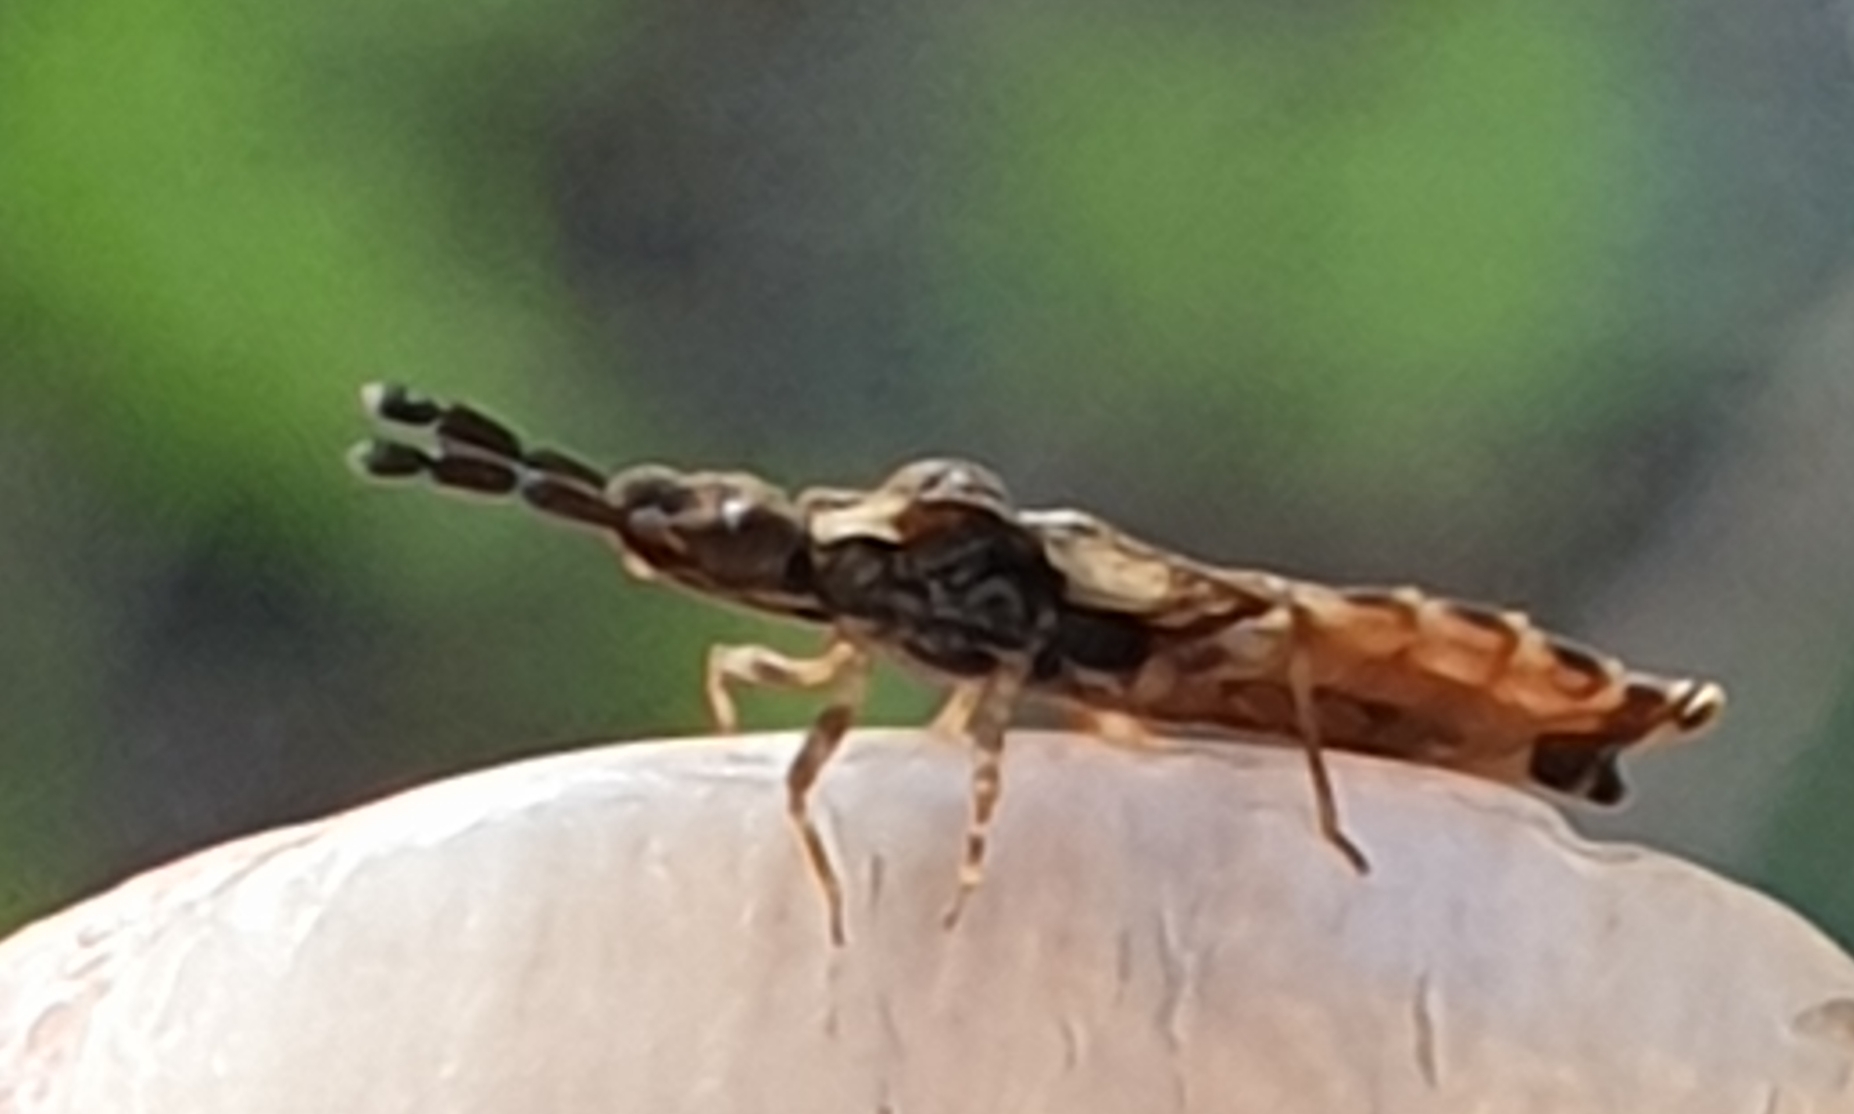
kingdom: Animalia
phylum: Arthropoda
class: Insecta
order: Hemiptera
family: Aradidae
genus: Aradus
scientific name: Aradus depressus
